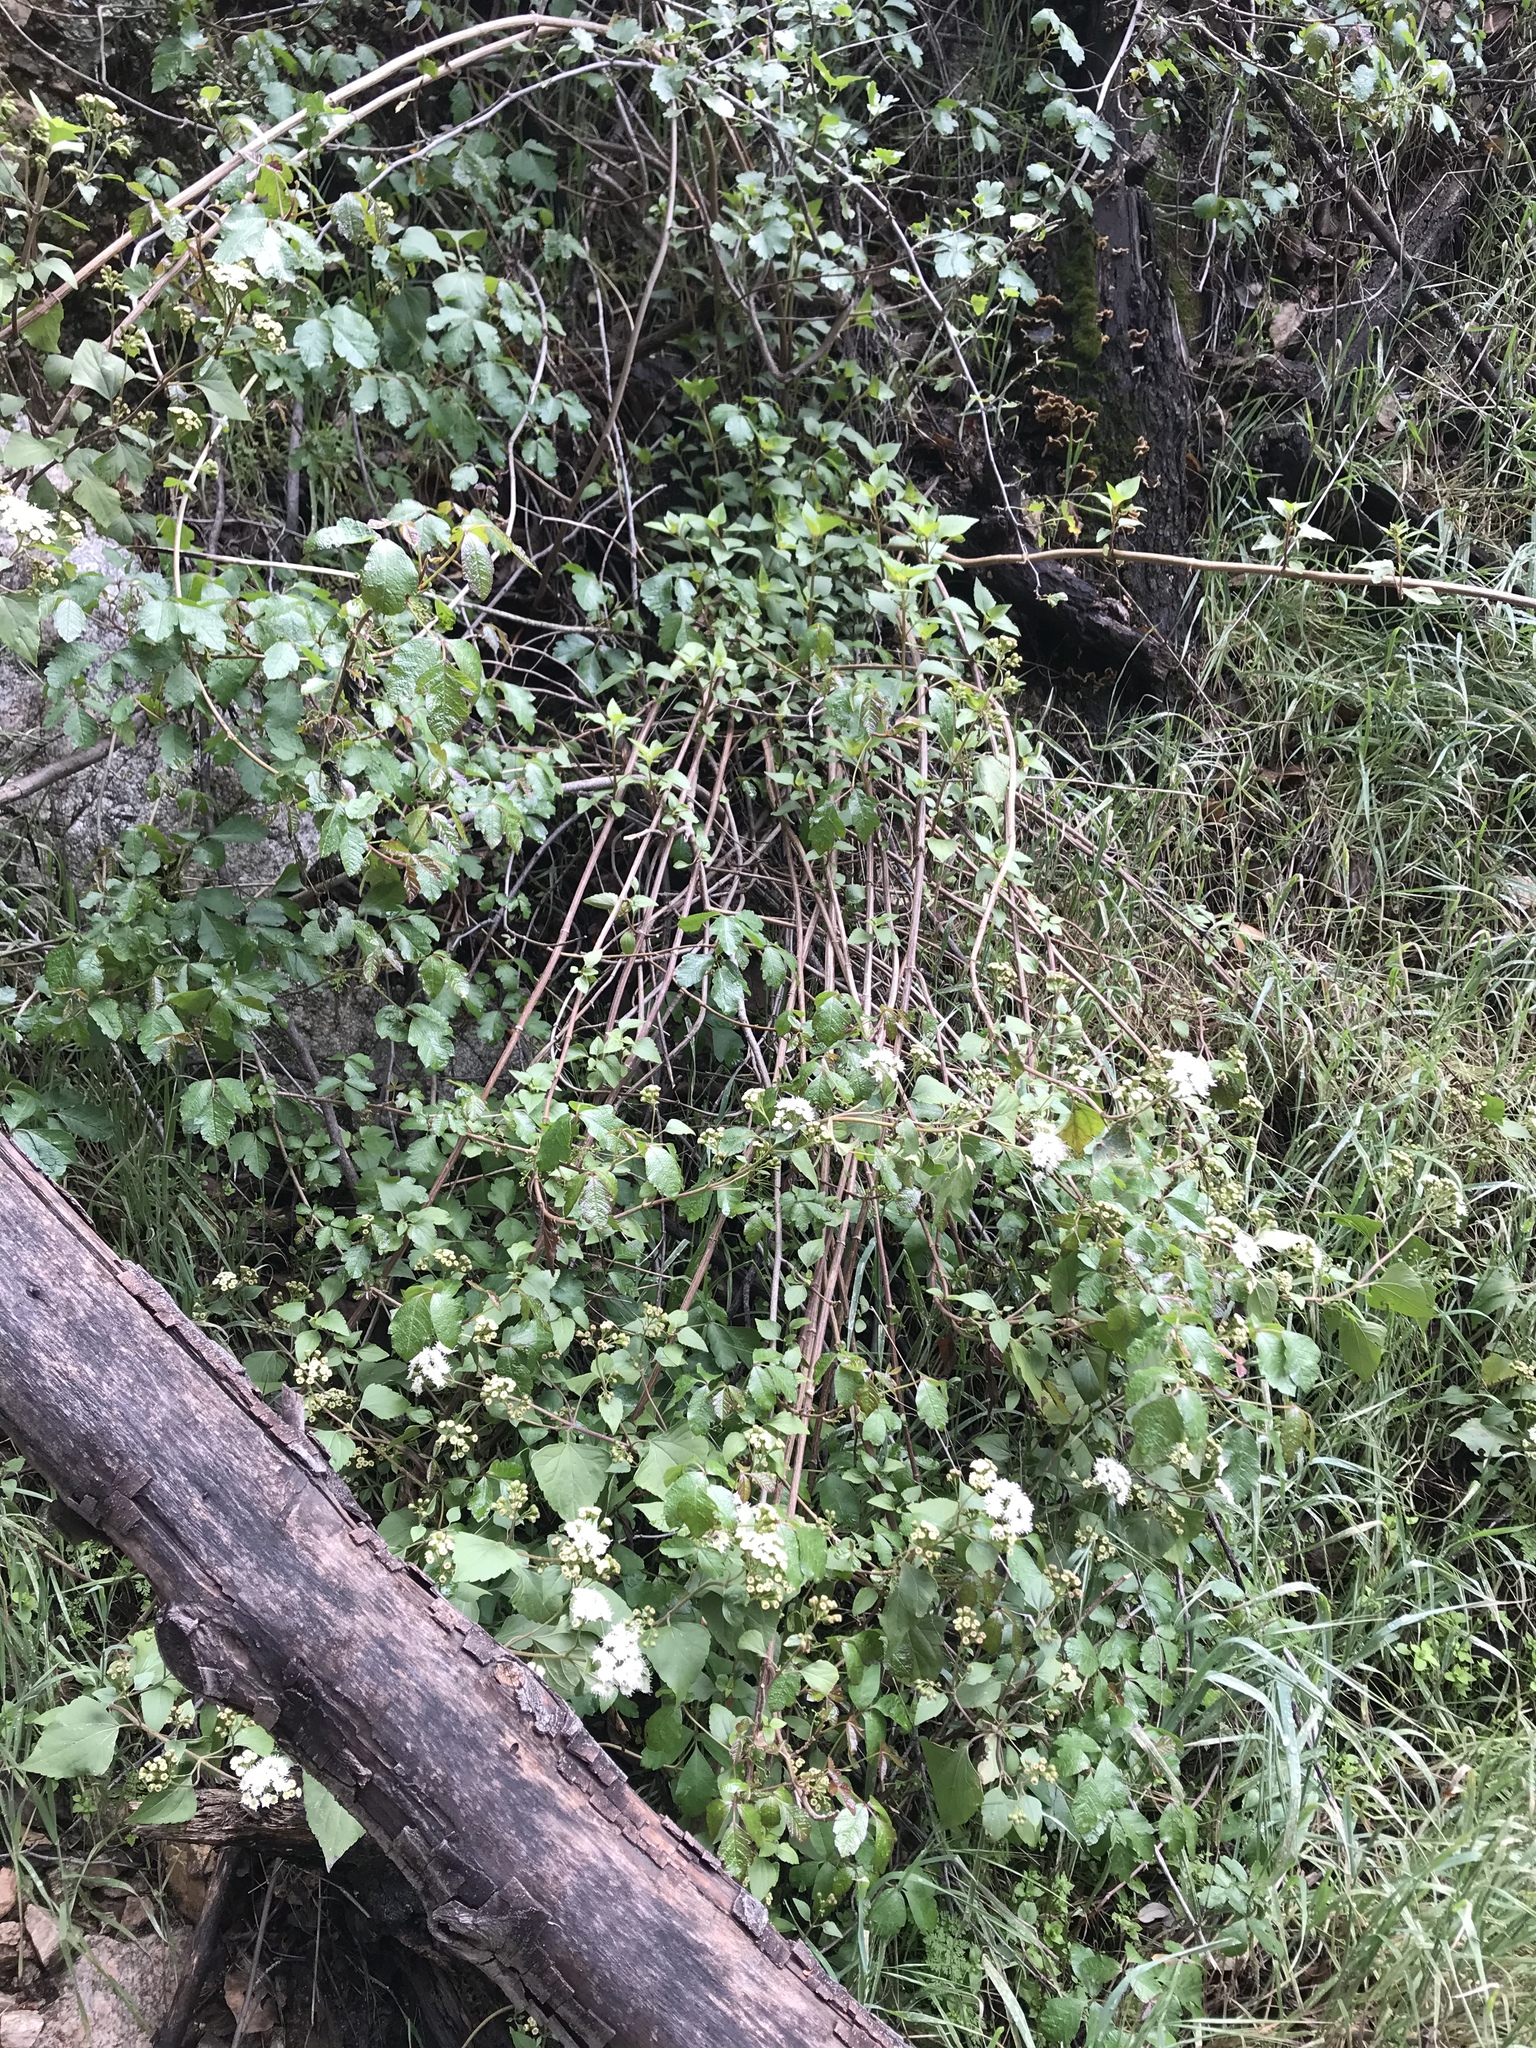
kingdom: Plantae
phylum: Tracheophyta
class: Magnoliopsida
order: Asterales
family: Asteraceae
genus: Ageratina
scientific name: Ageratina adenophora
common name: Sticky snakeroot
